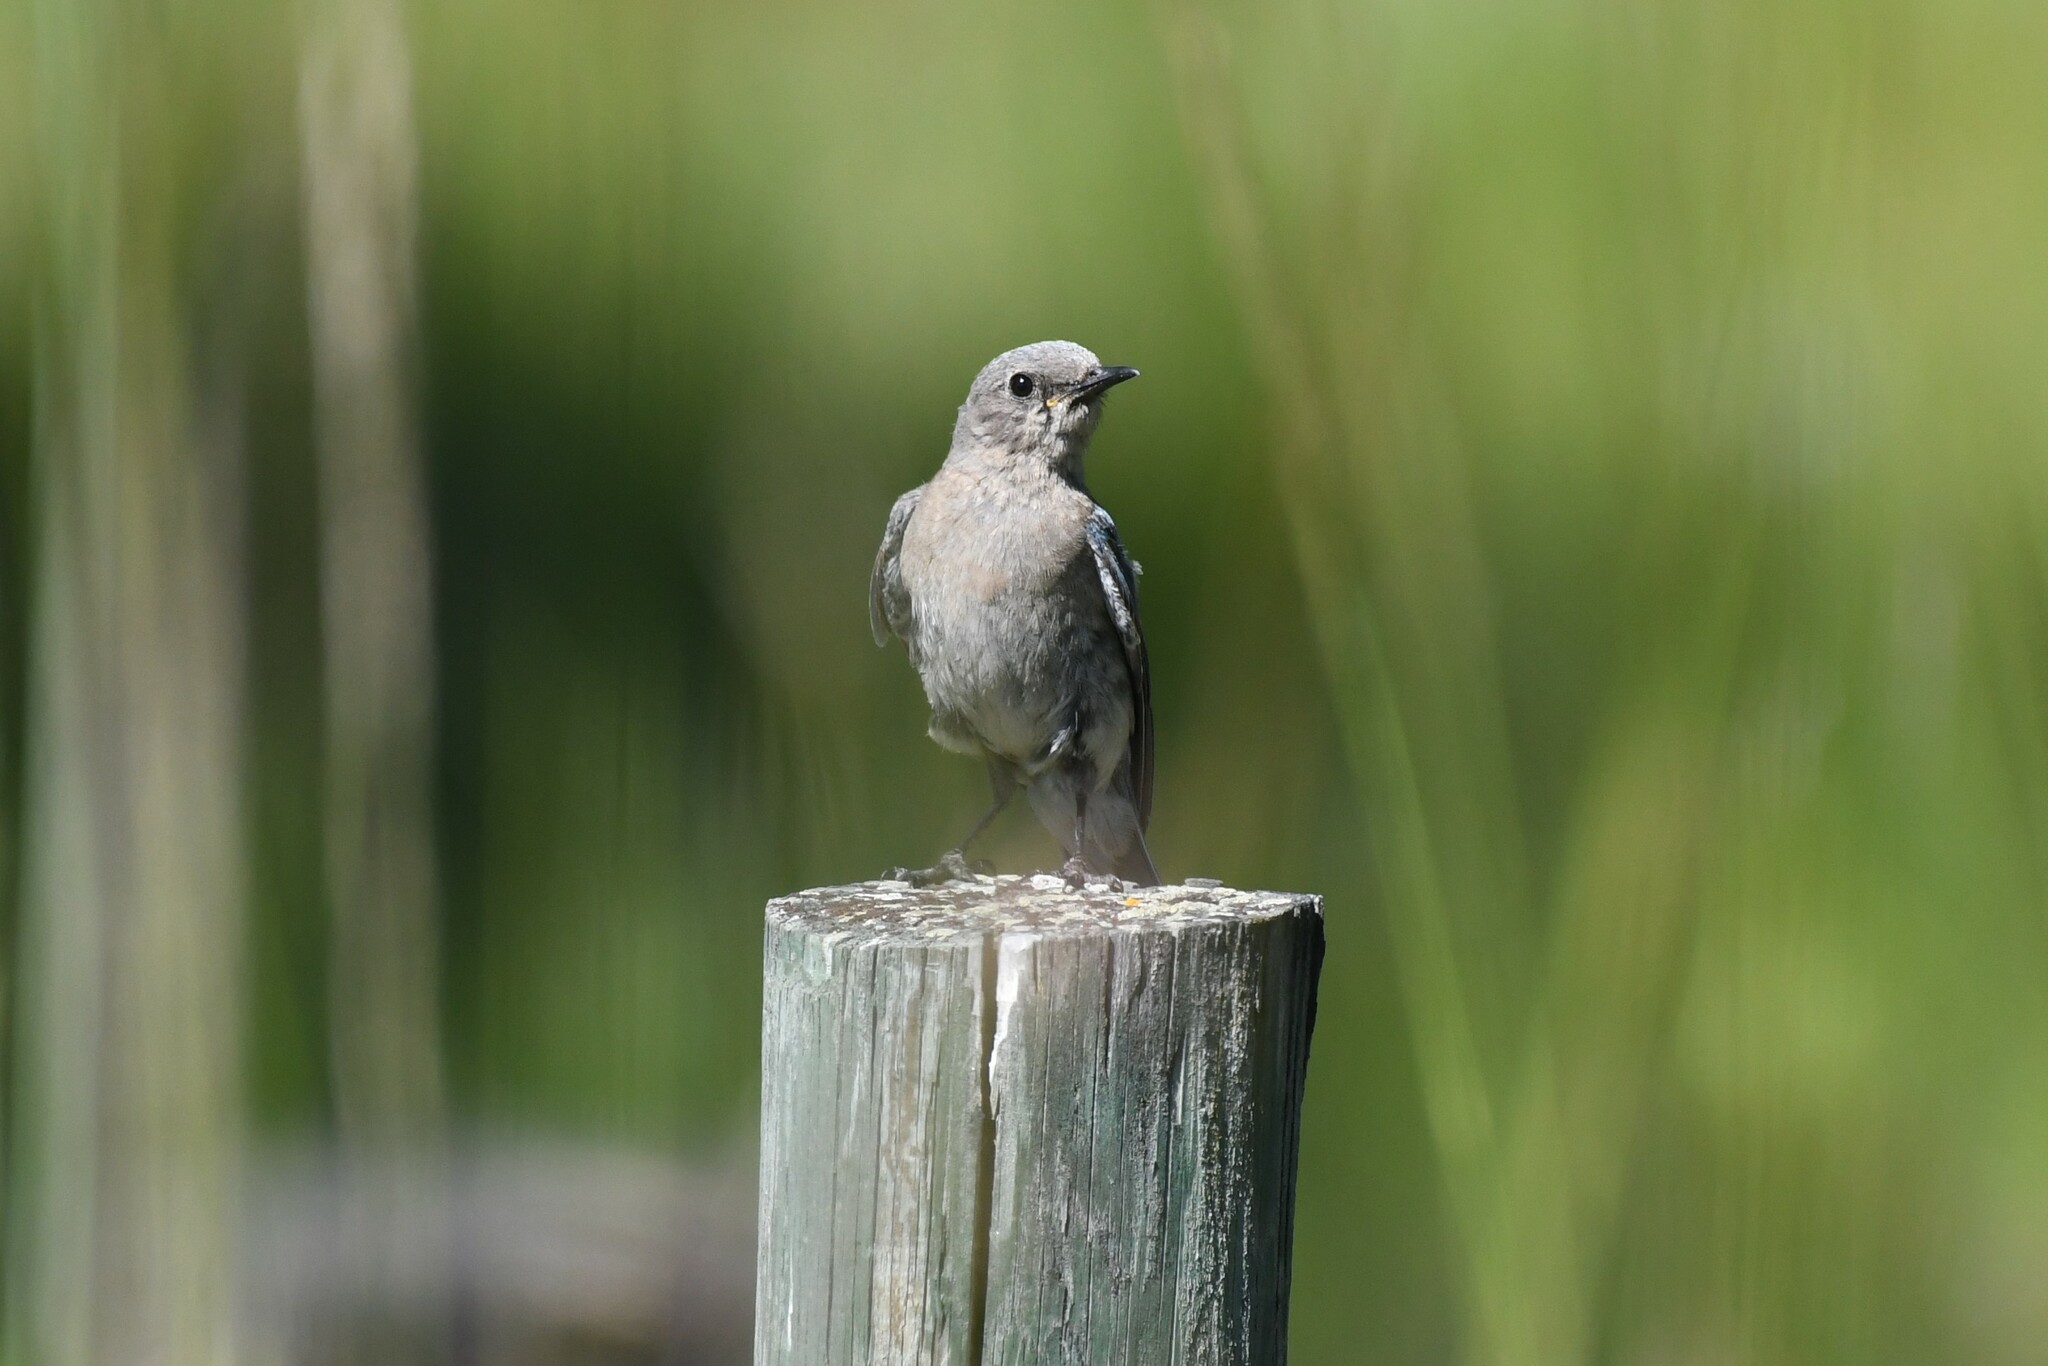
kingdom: Animalia
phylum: Chordata
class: Aves
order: Passeriformes
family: Turdidae
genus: Sialia
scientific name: Sialia currucoides
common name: Mountain bluebird
